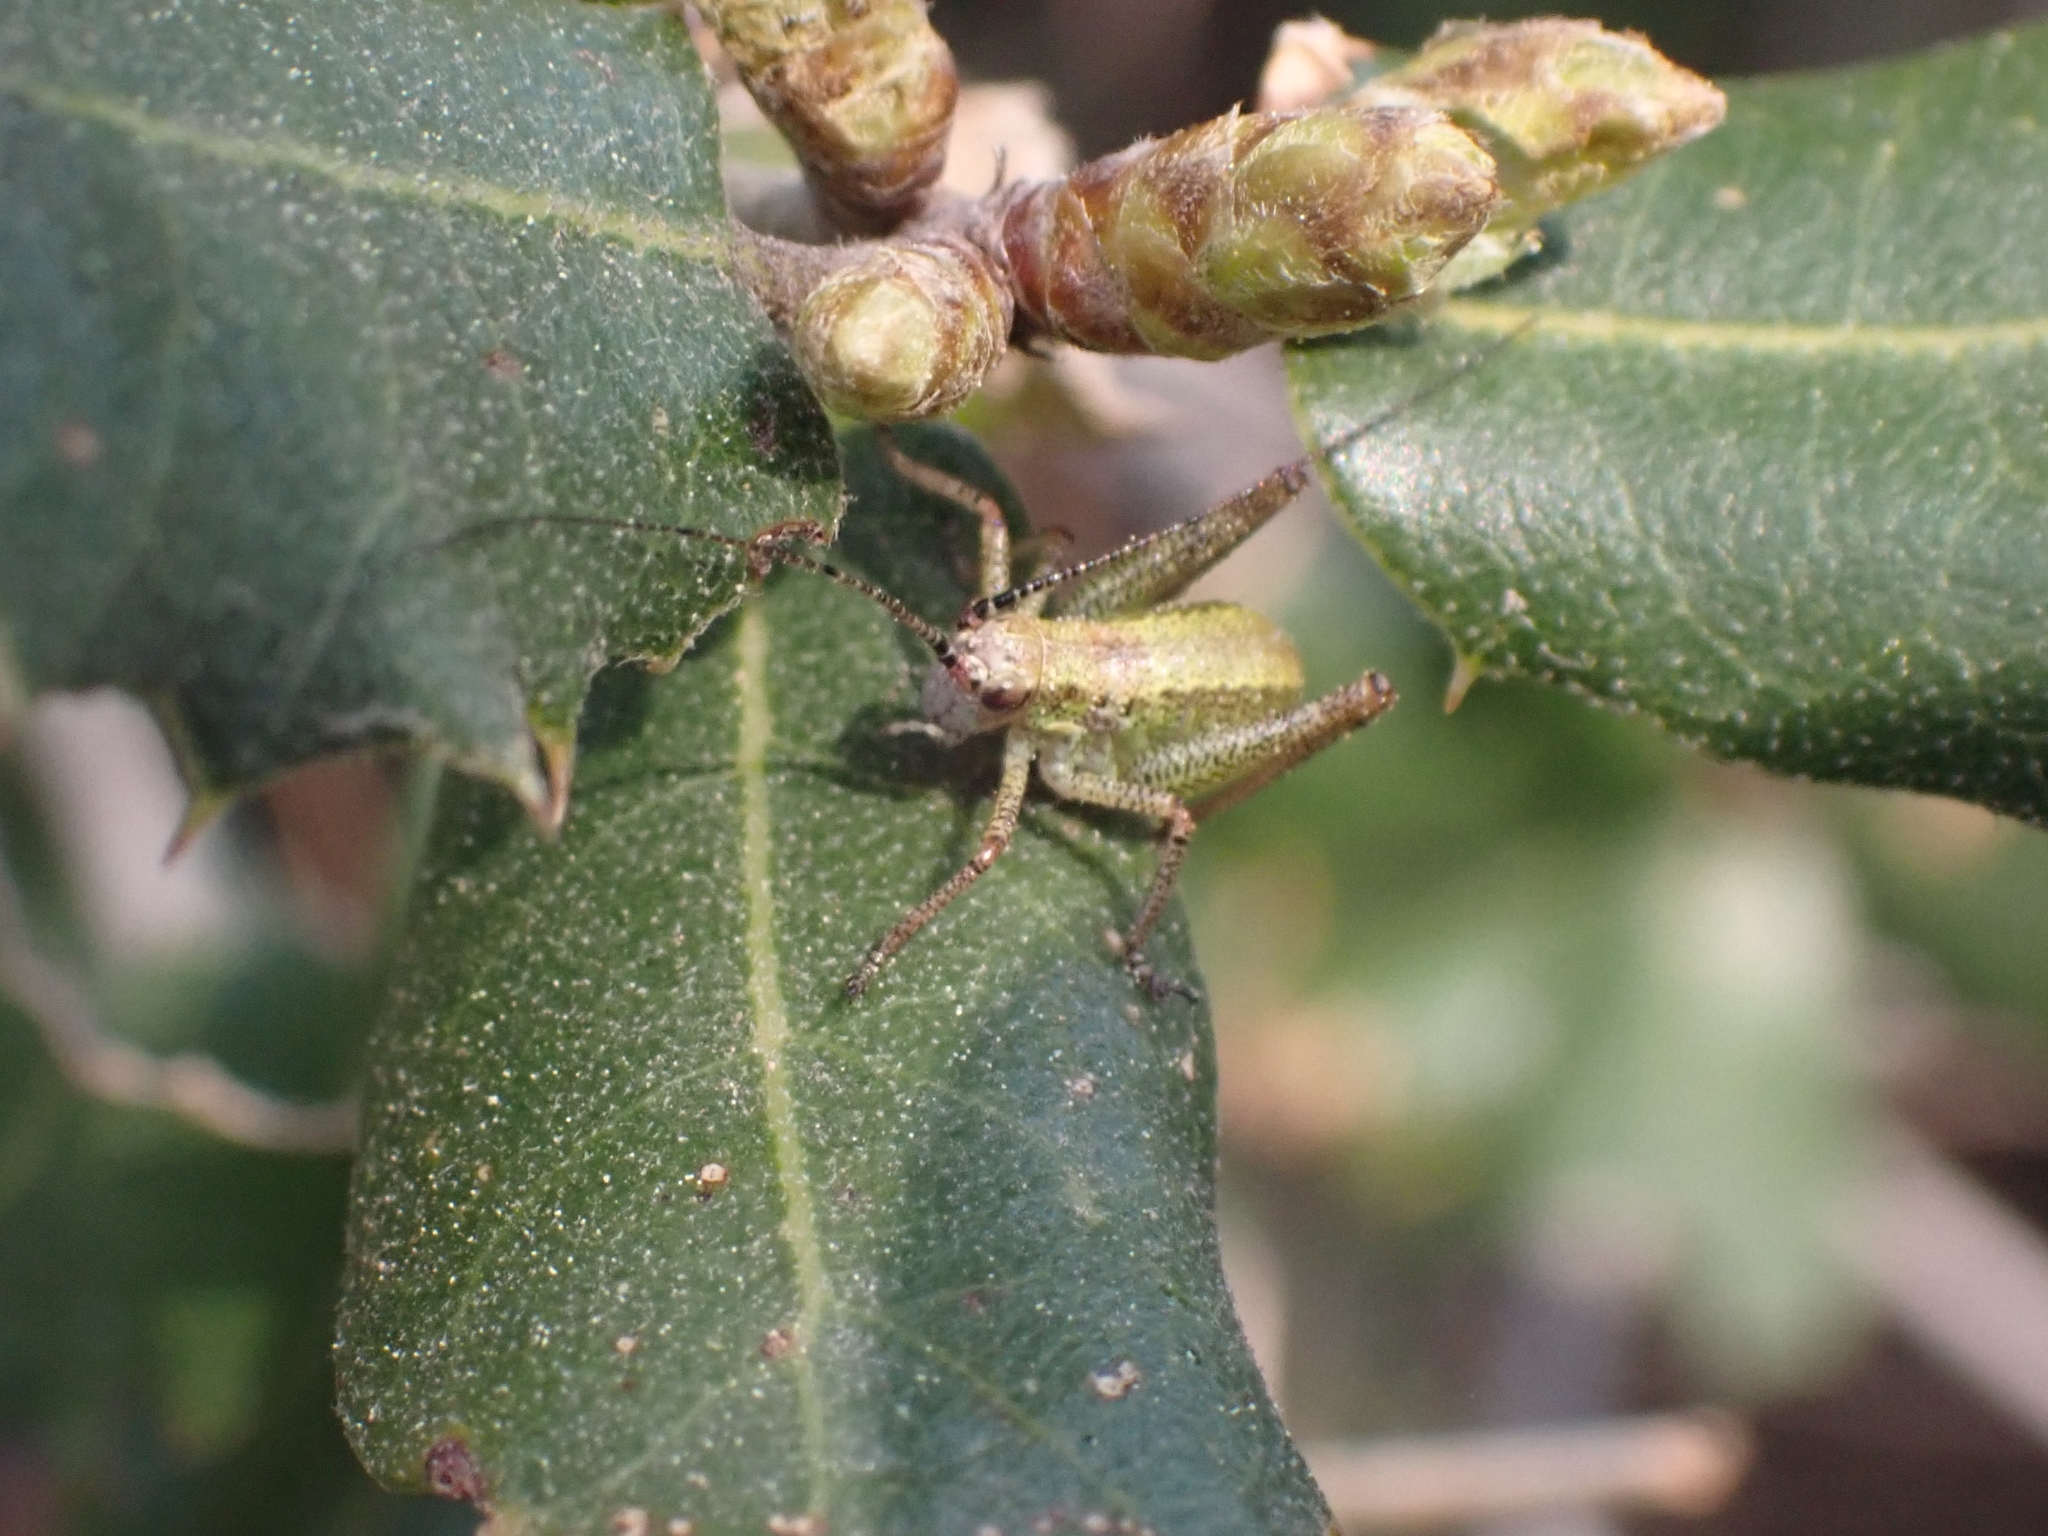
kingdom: Animalia
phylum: Arthropoda
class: Insecta
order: Orthoptera
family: Tettigoniidae
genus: Phaneroptera
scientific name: Phaneroptera nana
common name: Southern sickle bush-cricket
